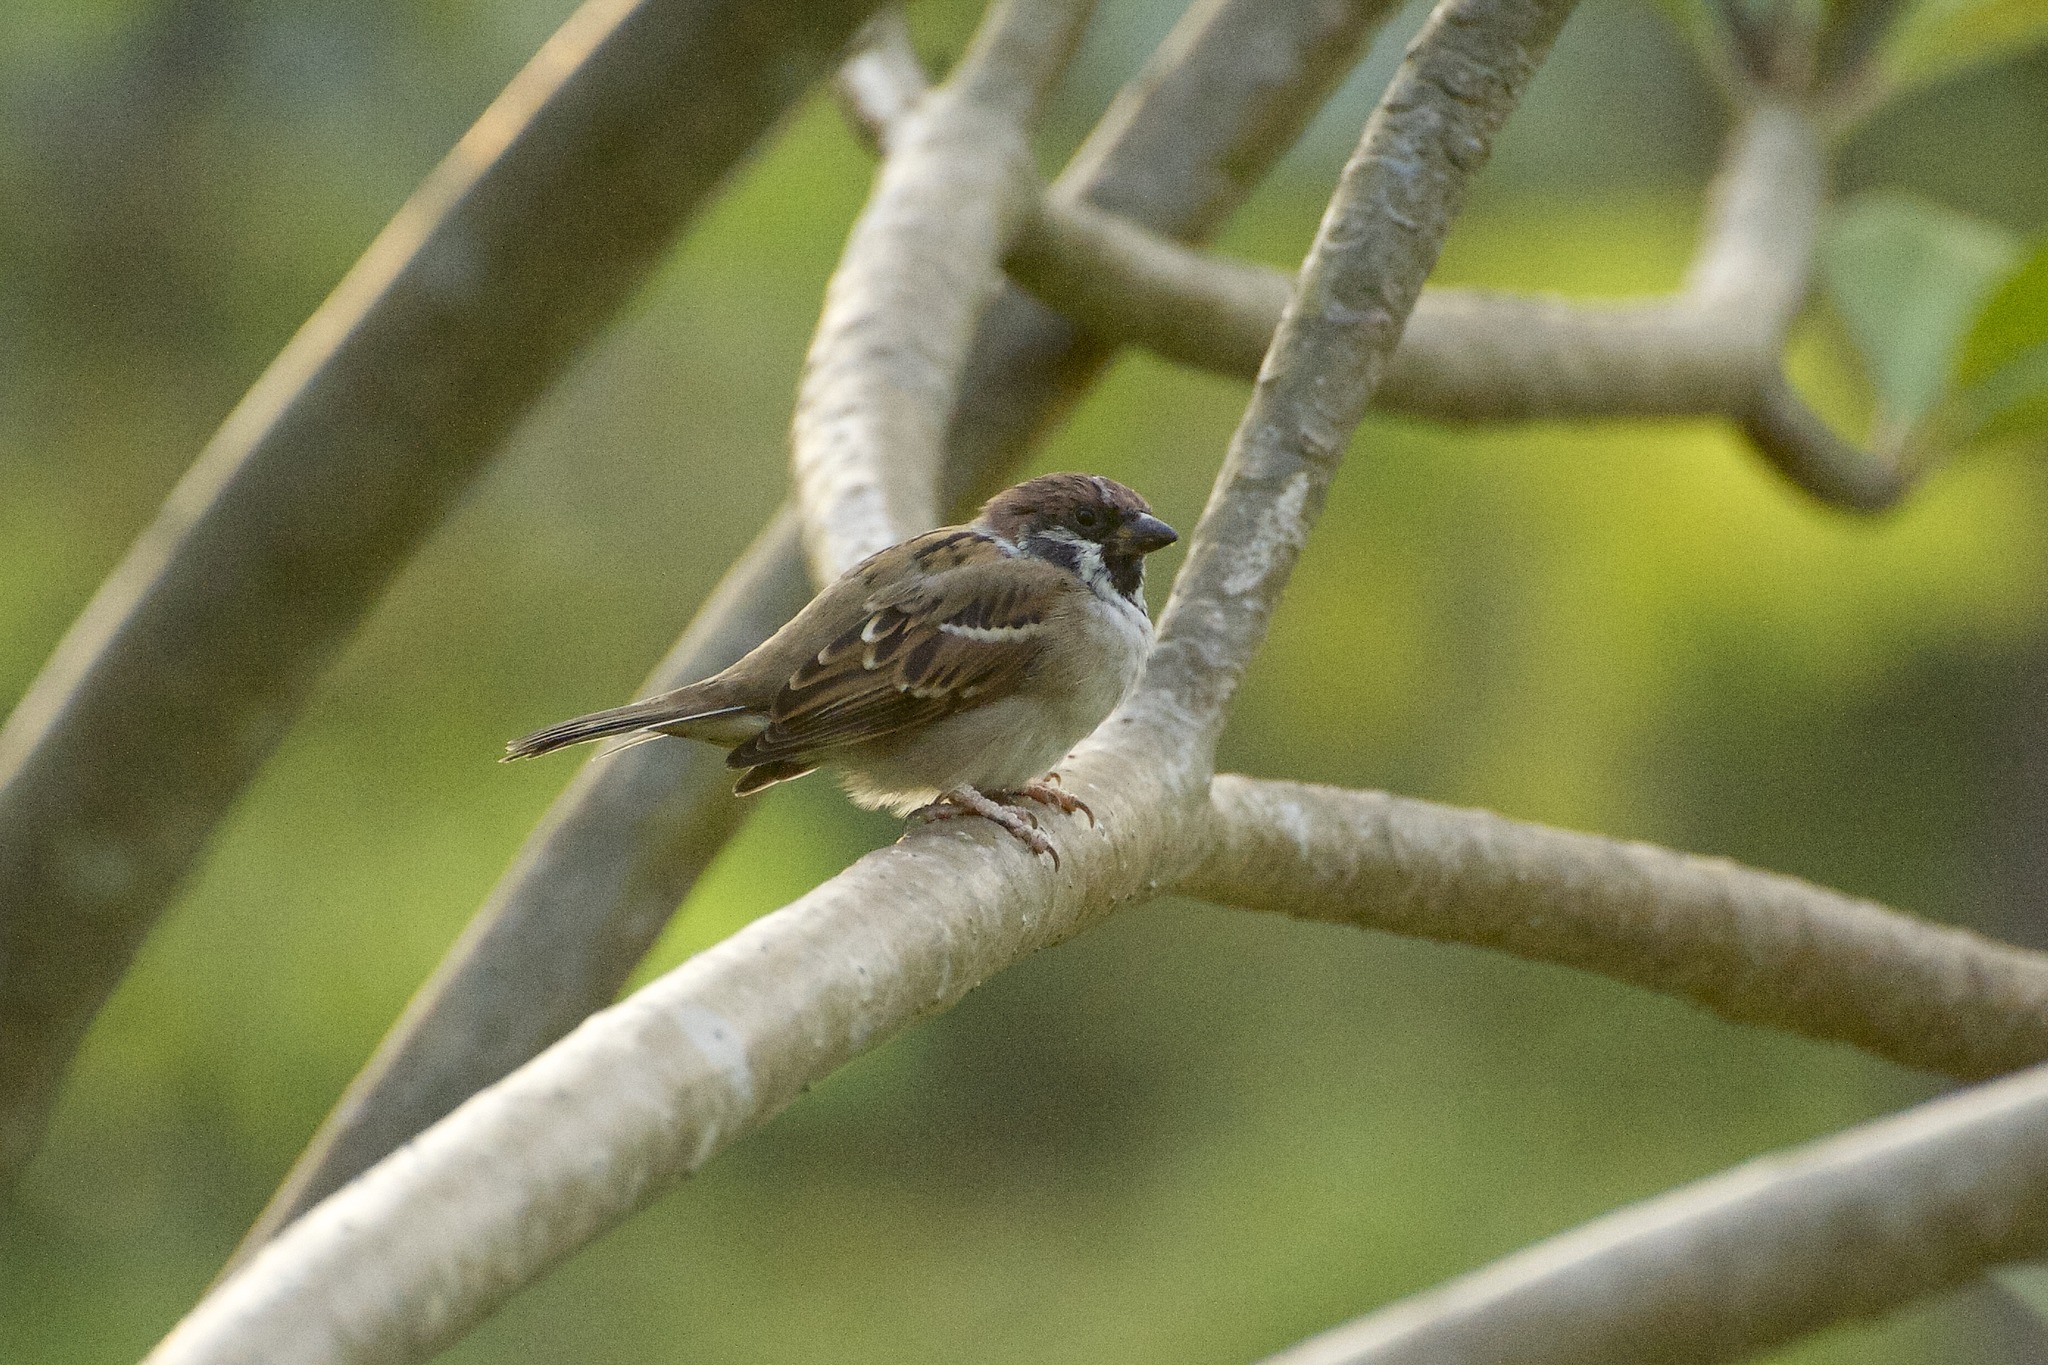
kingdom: Animalia
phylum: Chordata
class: Aves
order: Passeriformes
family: Passeridae
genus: Passer
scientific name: Passer montanus
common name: Eurasian tree sparrow
